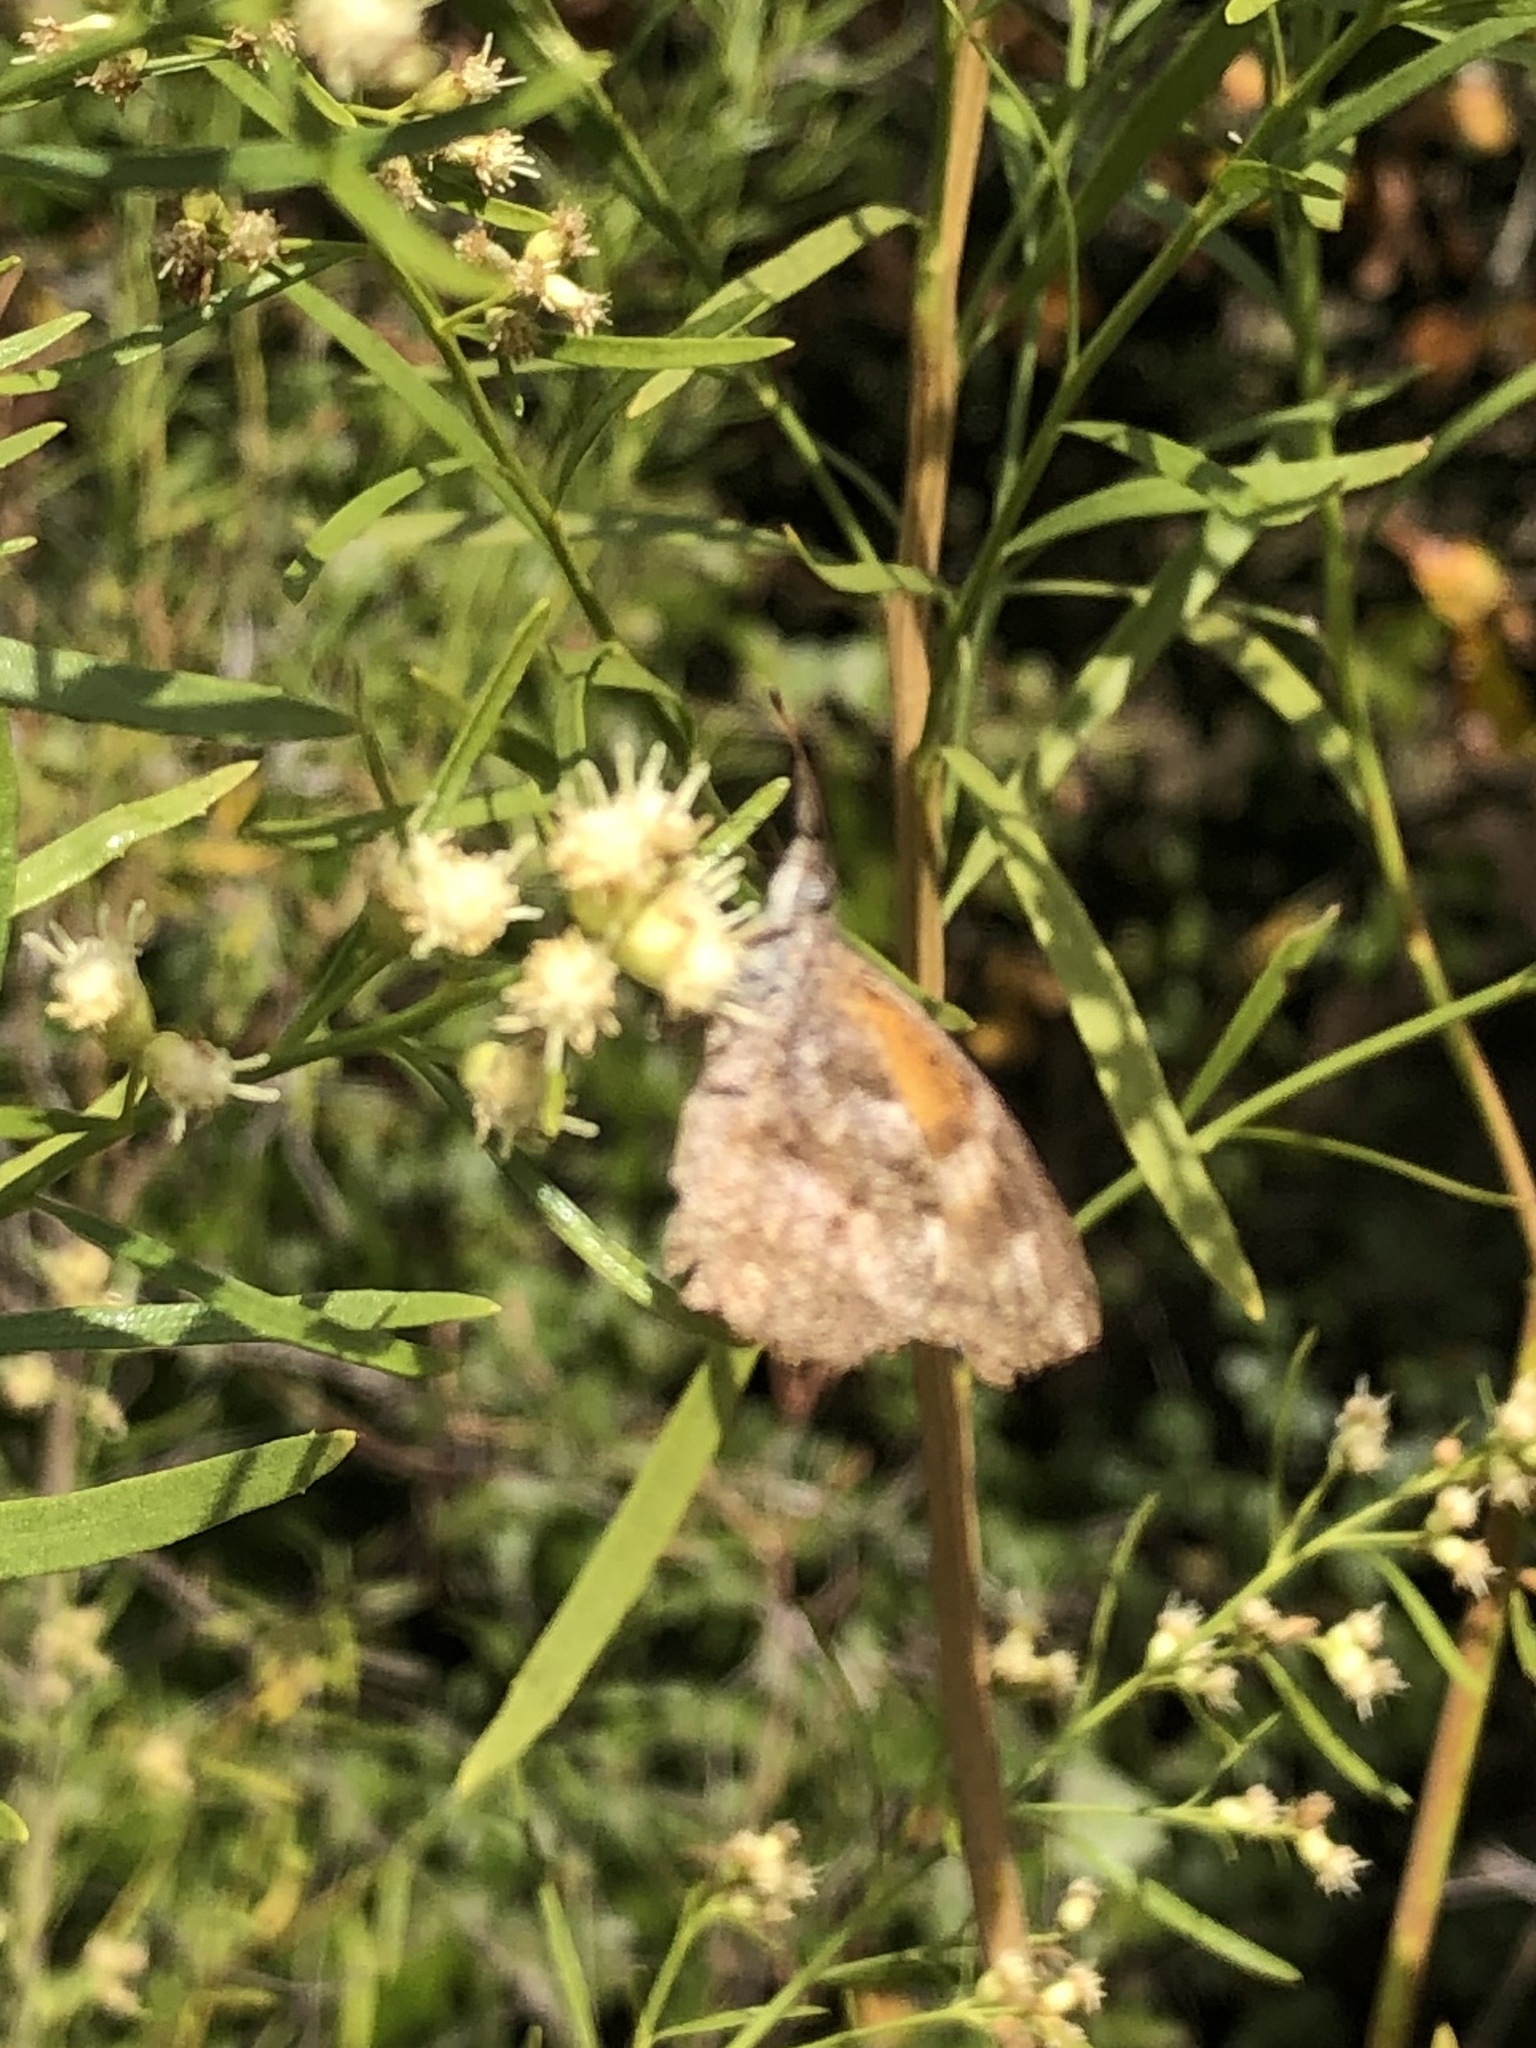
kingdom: Animalia
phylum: Arthropoda
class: Insecta
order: Lepidoptera
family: Nymphalidae
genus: Libytheana
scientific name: Libytheana carinenta
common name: American snout
